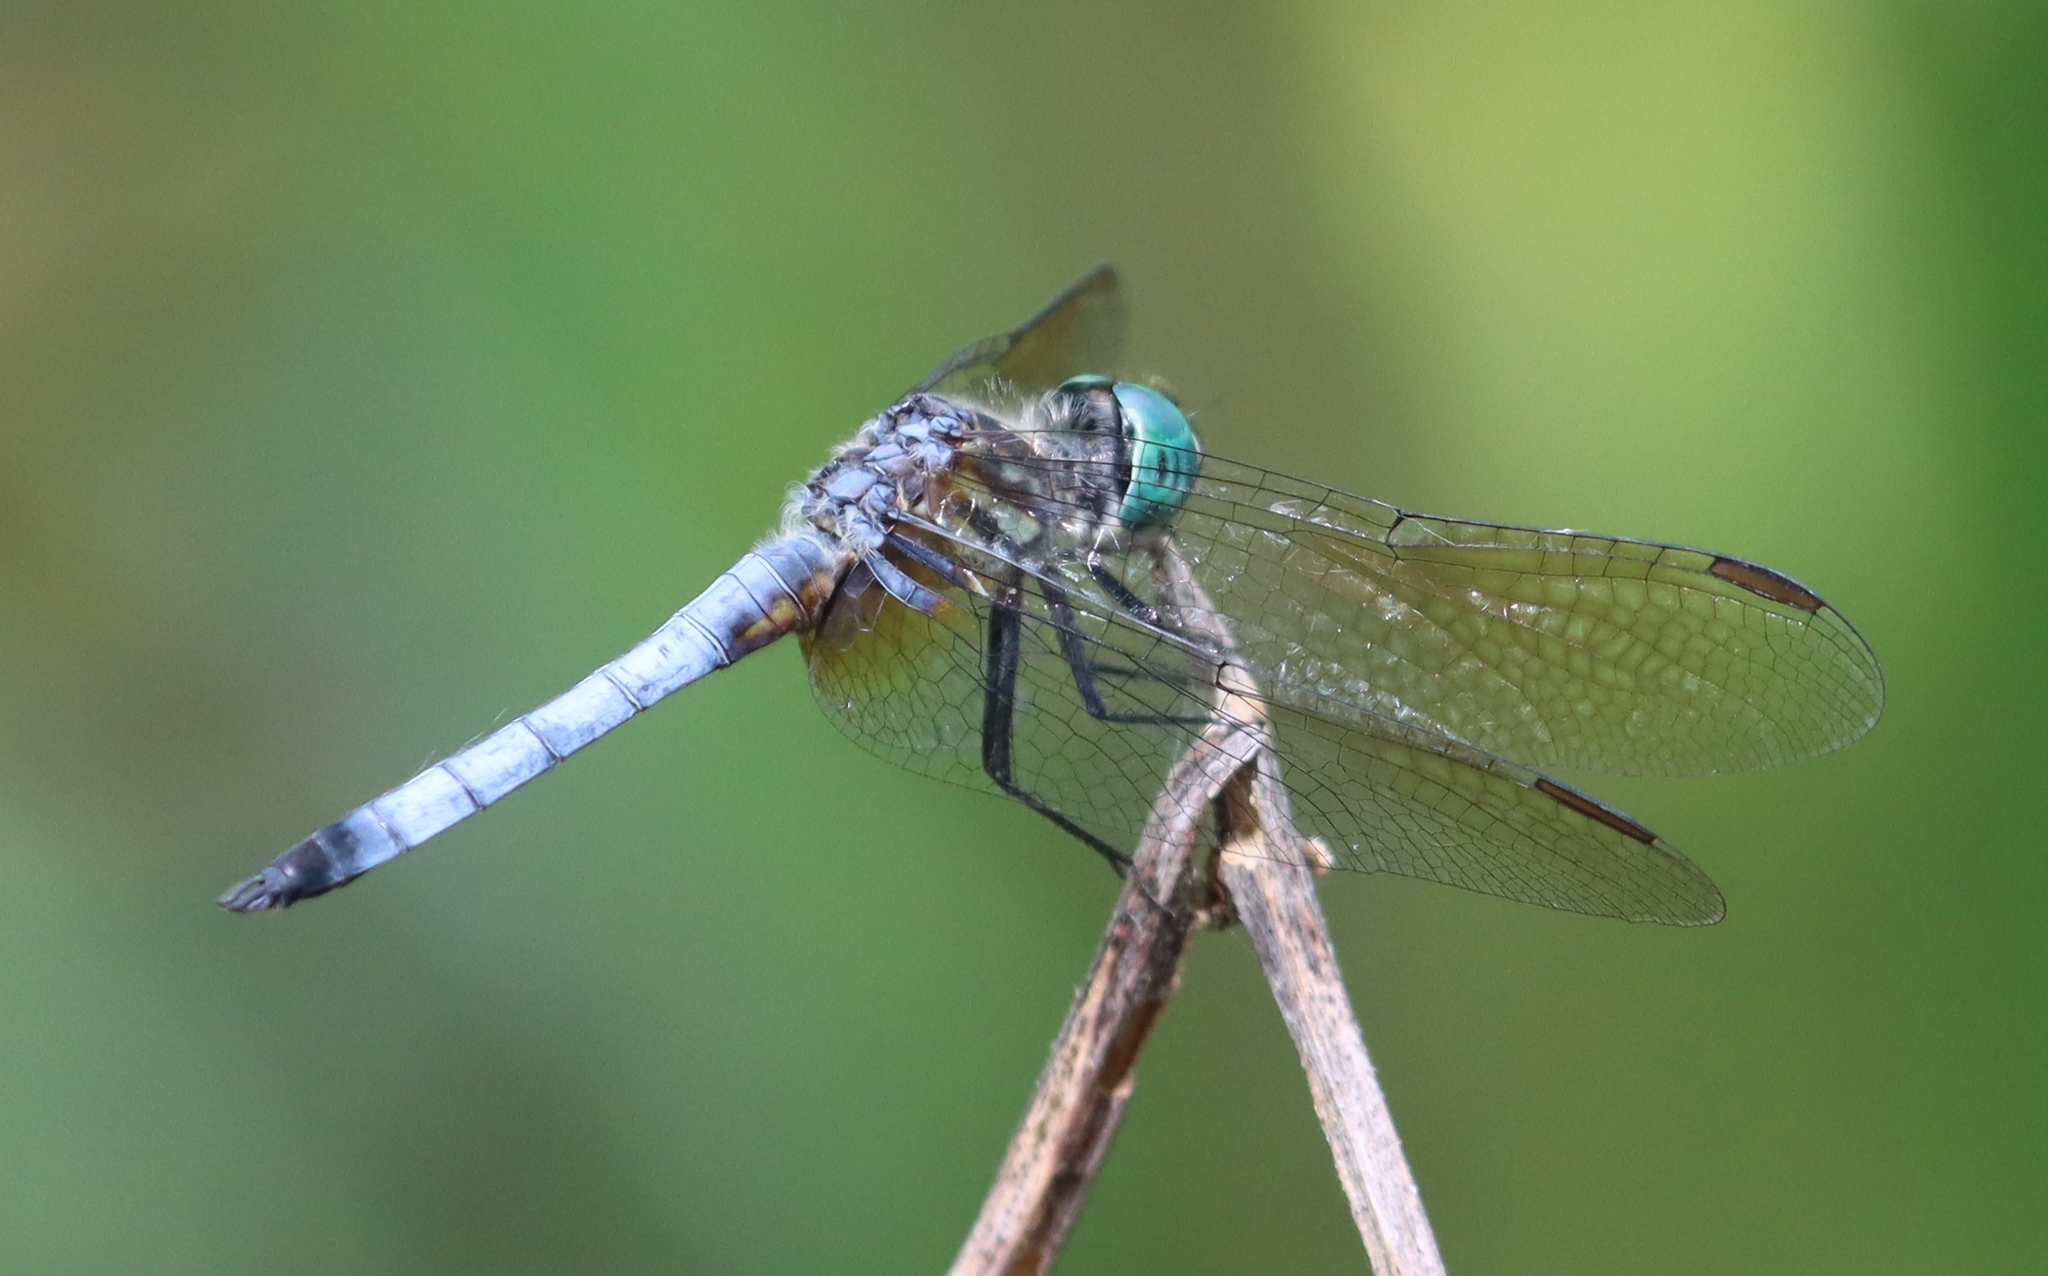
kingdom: Animalia
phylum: Arthropoda
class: Insecta
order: Odonata
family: Libellulidae
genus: Pachydiplax
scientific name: Pachydiplax longipennis
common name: Blue dasher
